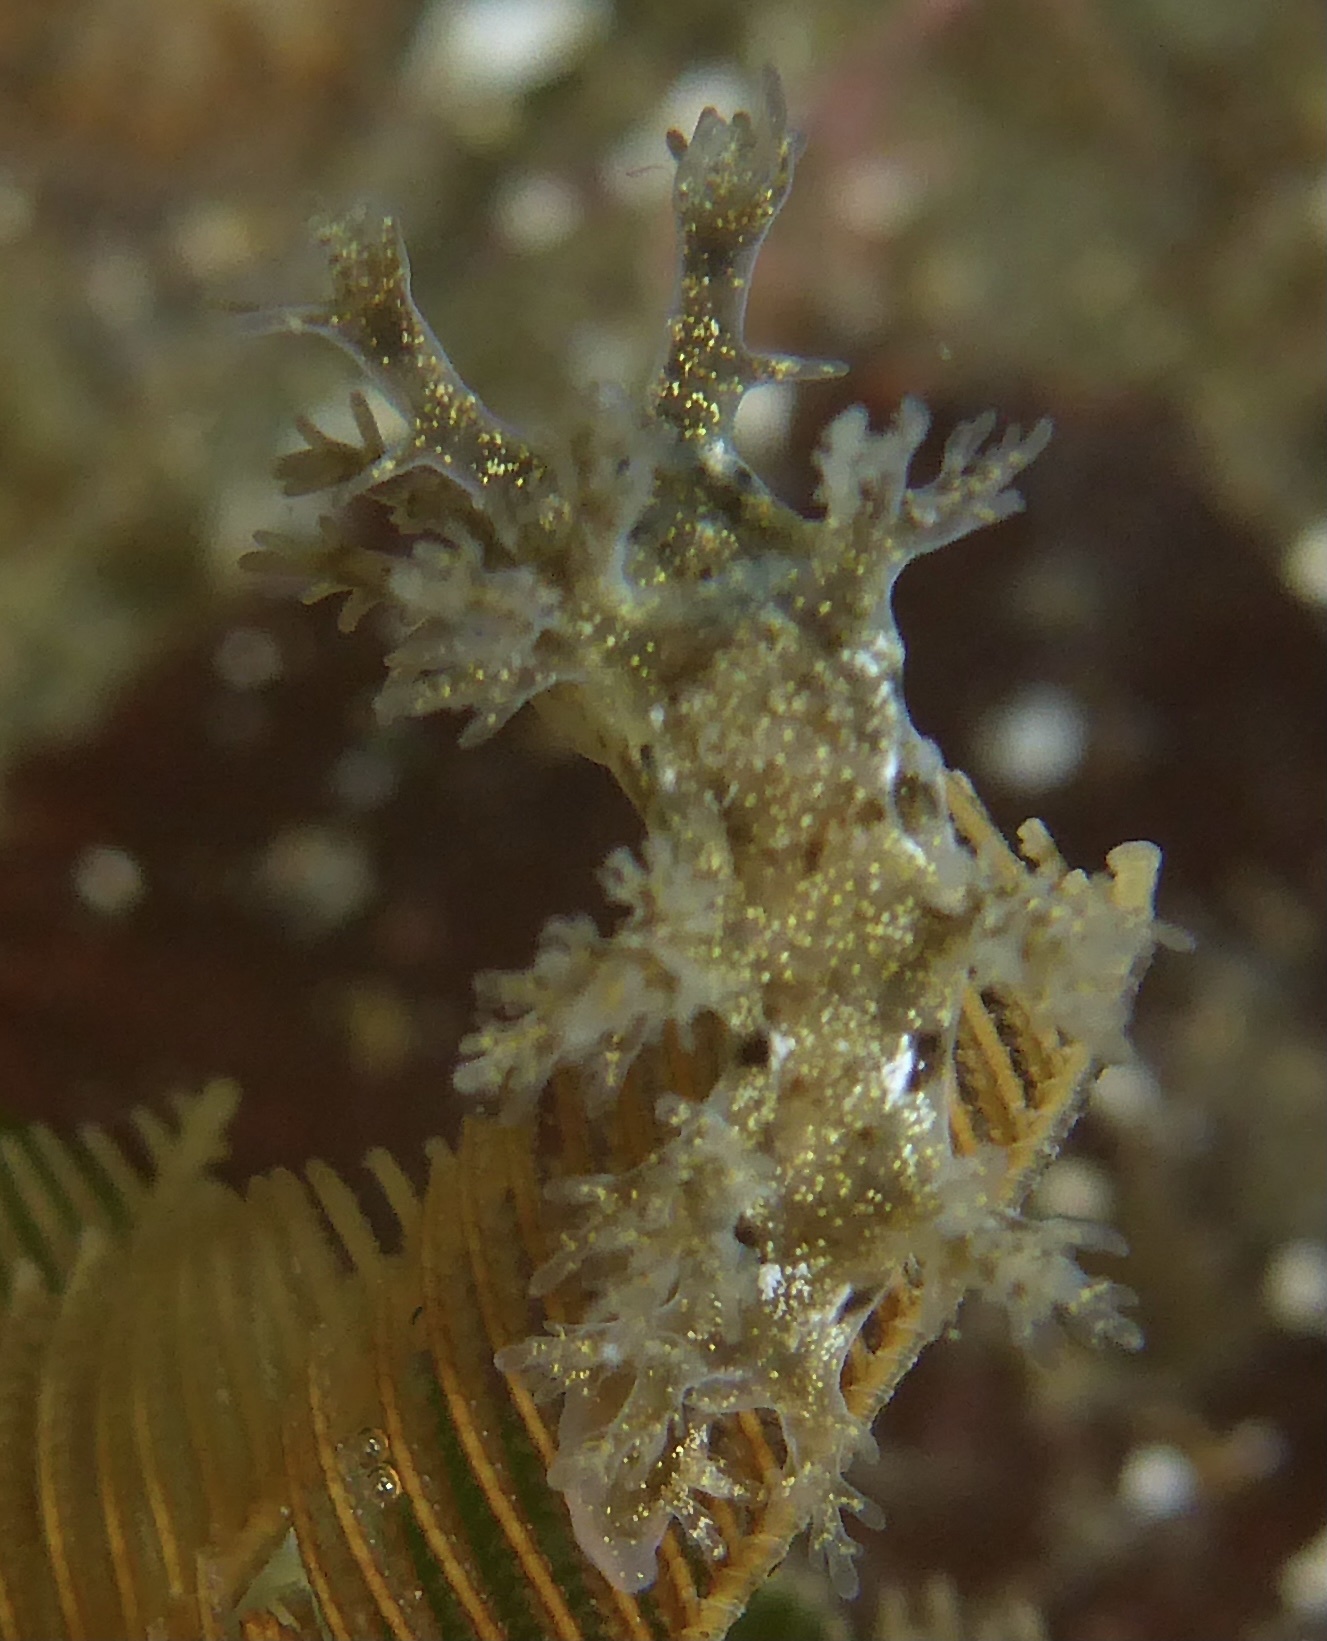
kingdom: Animalia
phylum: Mollusca
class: Gastropoda
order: Nudibranchia
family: Dendronotidae
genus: Dendronotus
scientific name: Dendronotus venustus
